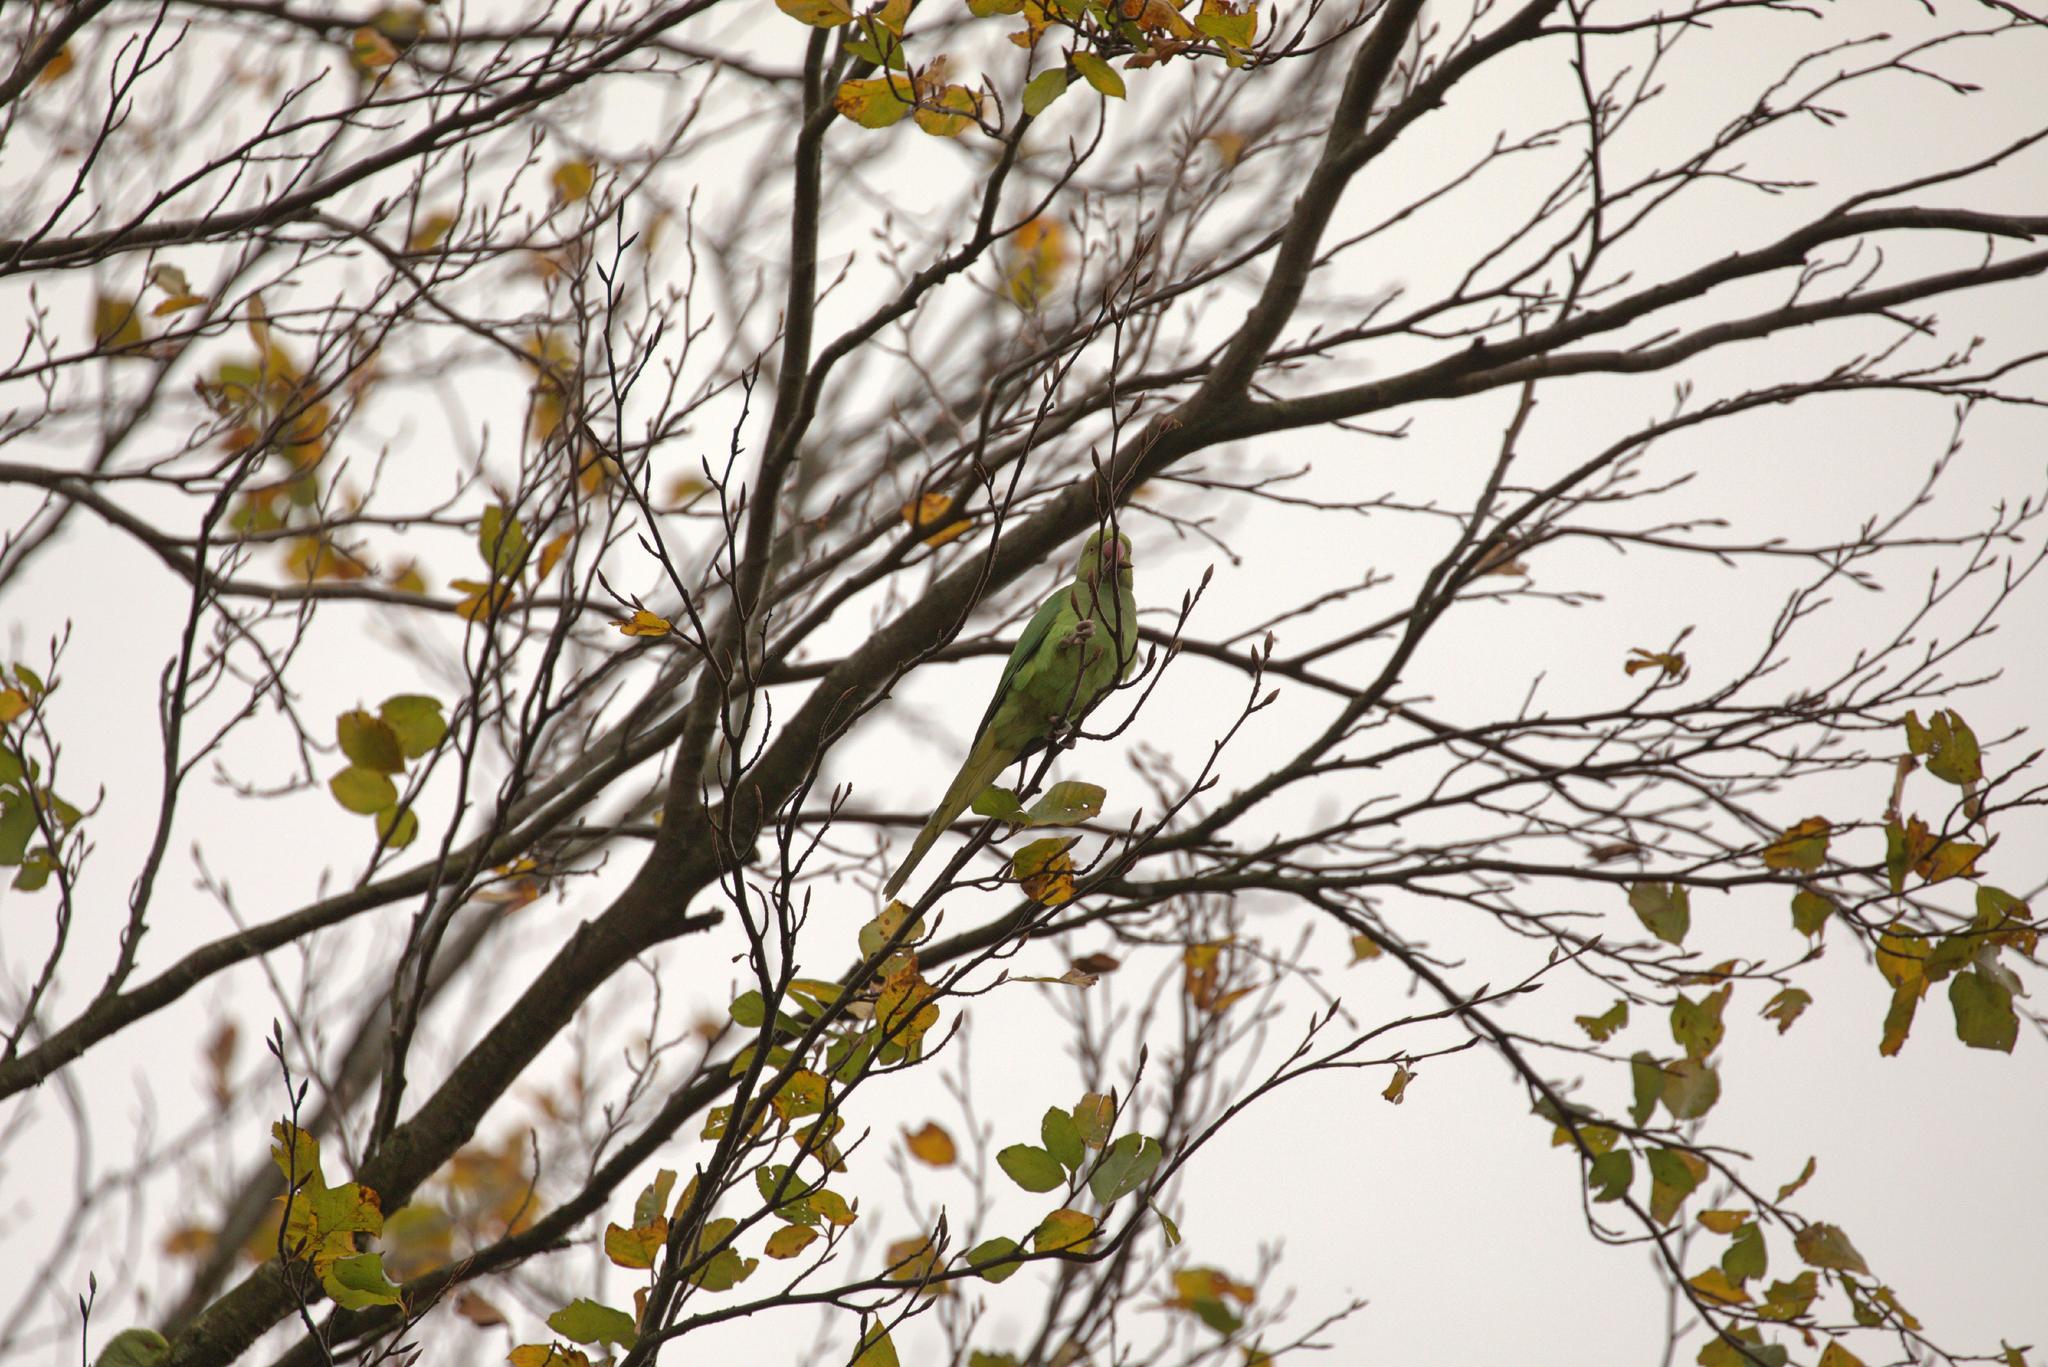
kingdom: Animalia
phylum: Chordata
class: Aves
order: Psittaciformes
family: Psittacidae
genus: Psittacula
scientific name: Psittacula krameri
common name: Rose-ringed parakeet
